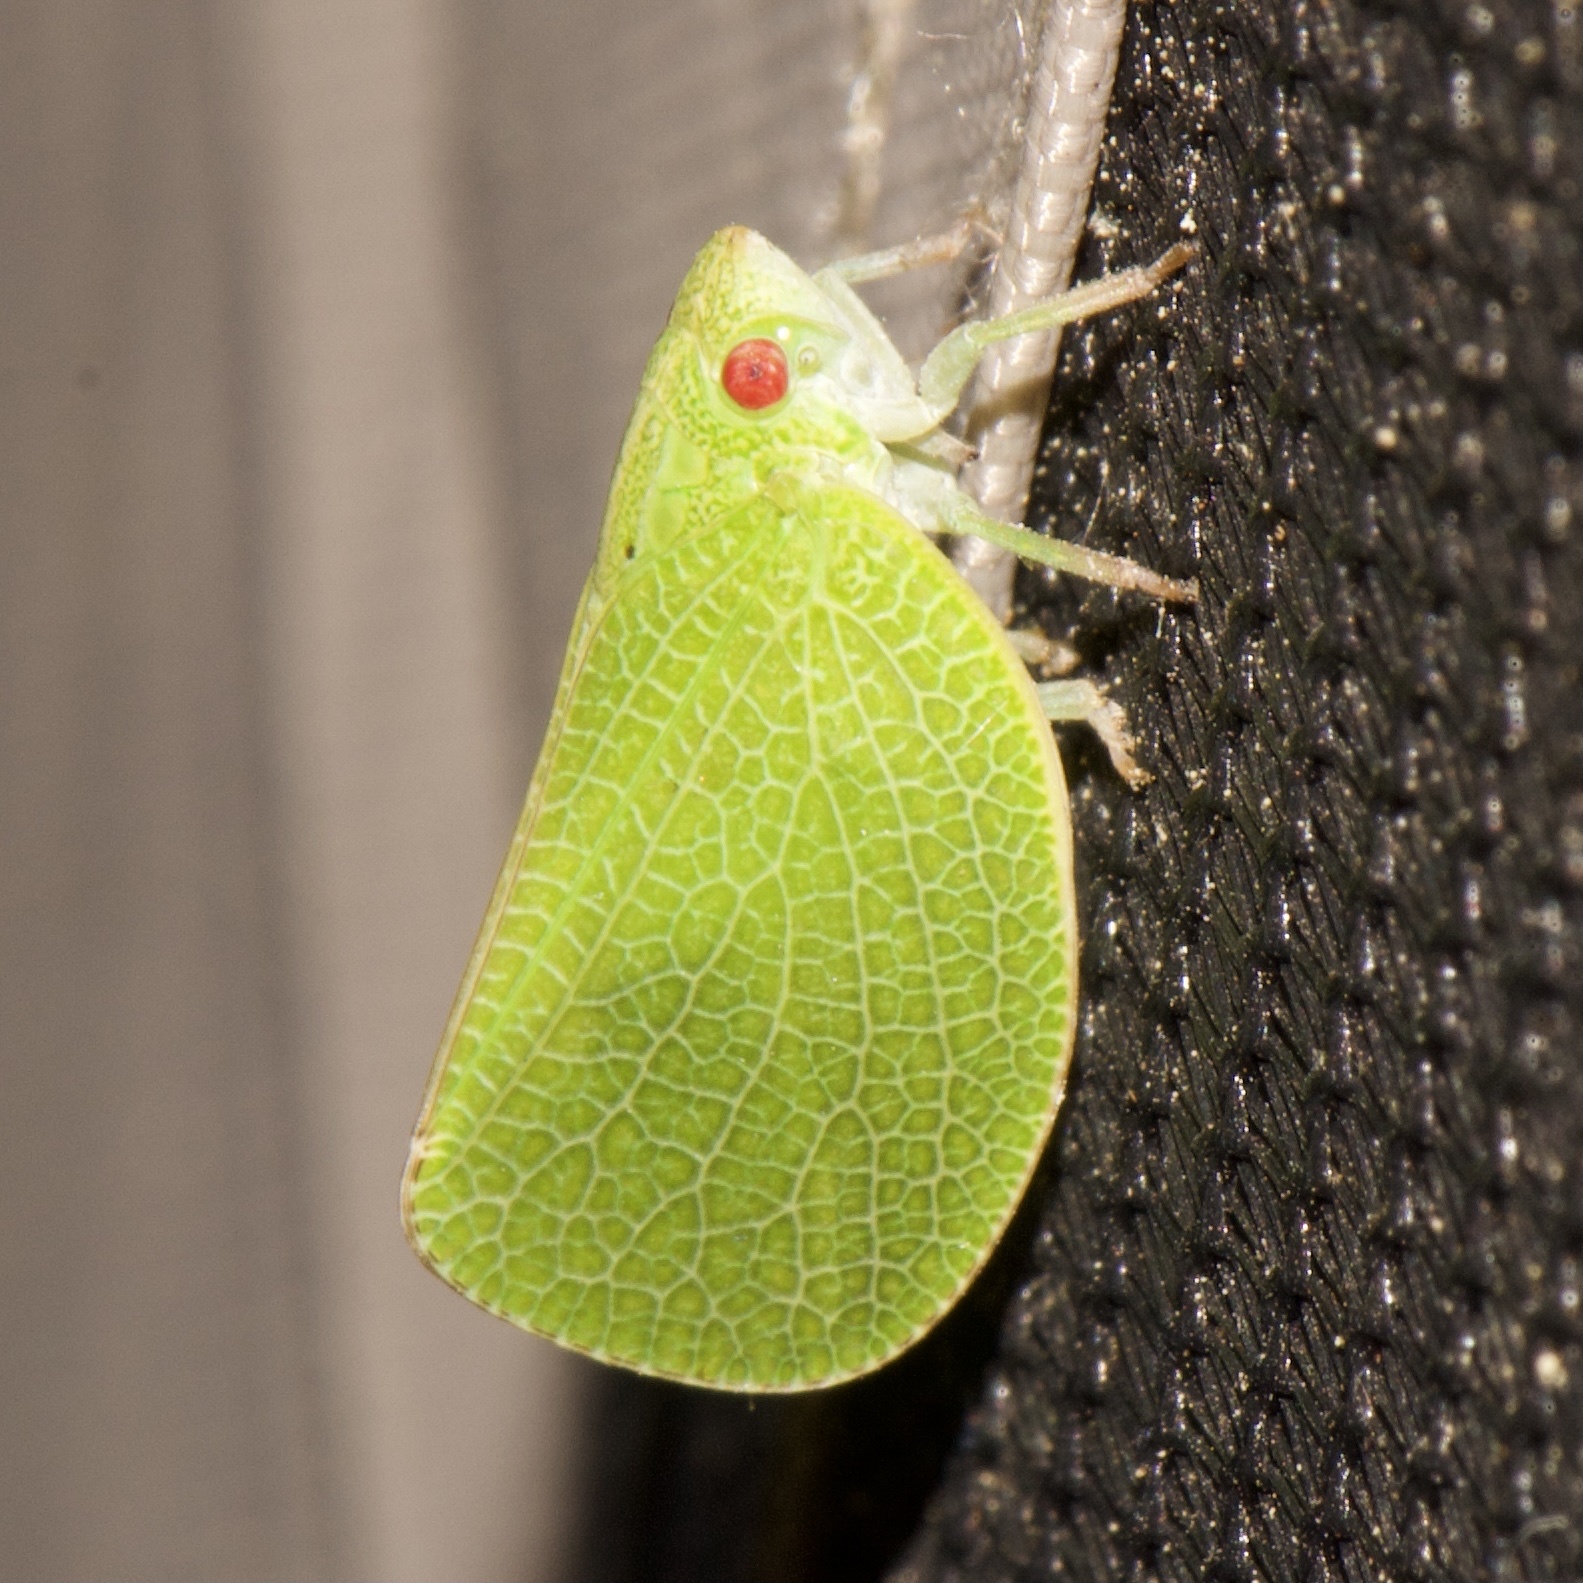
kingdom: Animalia
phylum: Arthropoda
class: Insecta
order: Hemiptera
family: Acanaloniidae
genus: Acanalonia
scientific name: Acanalonia conica
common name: Green cone-headed planthopper
